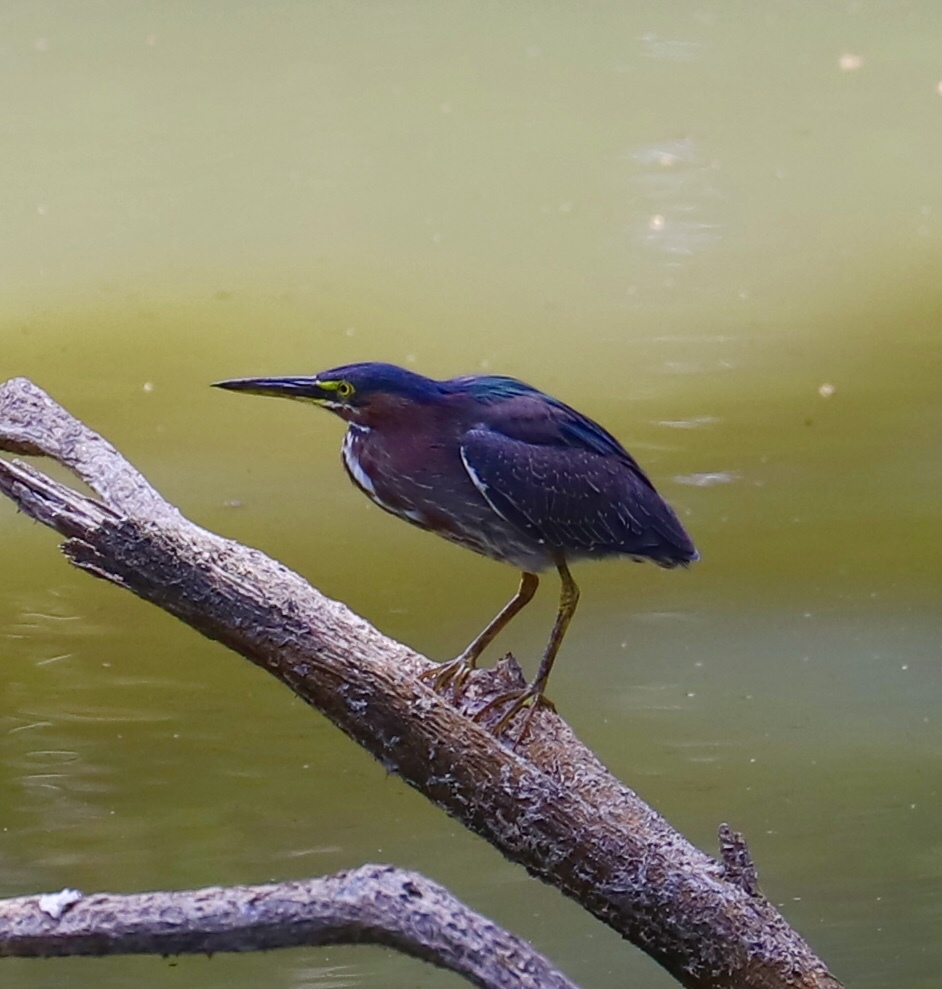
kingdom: Animalia
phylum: Chordata
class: Aves
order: Pelecaniformes
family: Ardeidae
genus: Butorides
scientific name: Butorides virescens
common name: Green heron
